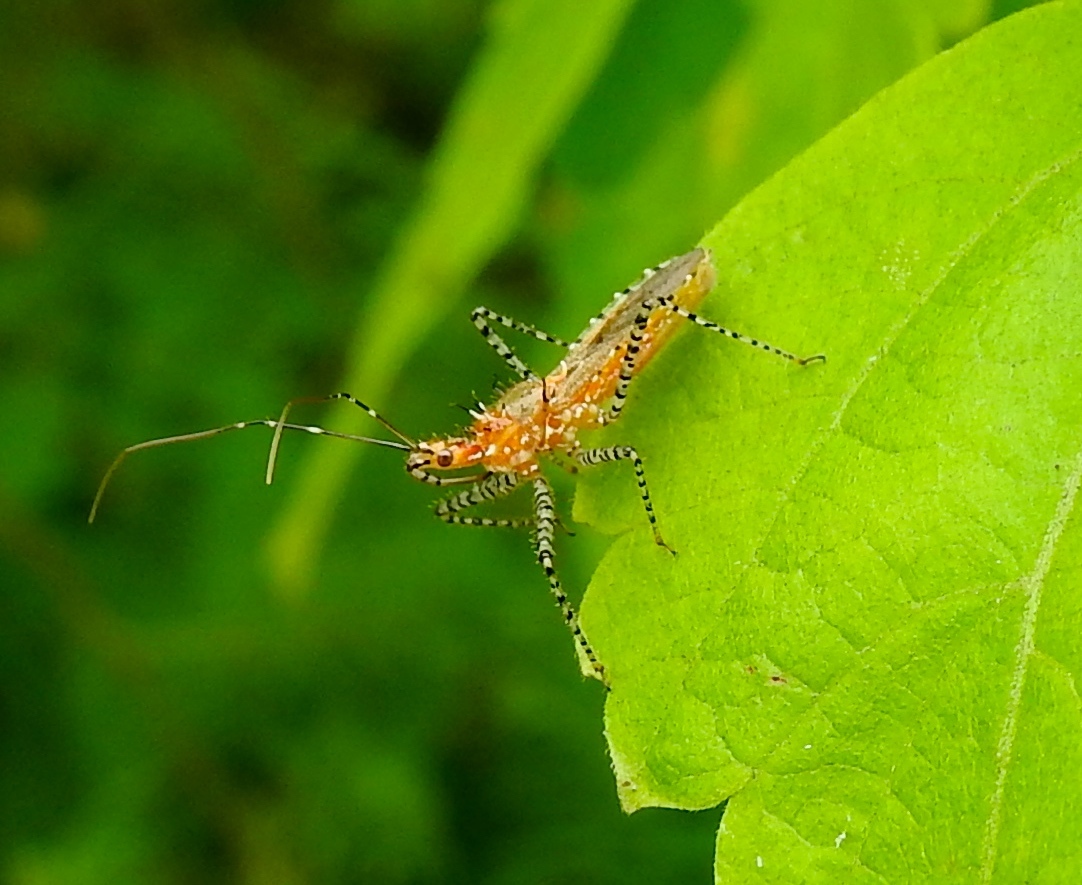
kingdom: Animalia
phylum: Arthropoda
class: Insecta
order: Hemiptera
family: Reduviidae
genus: Pselliopus
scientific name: Pselliopus
